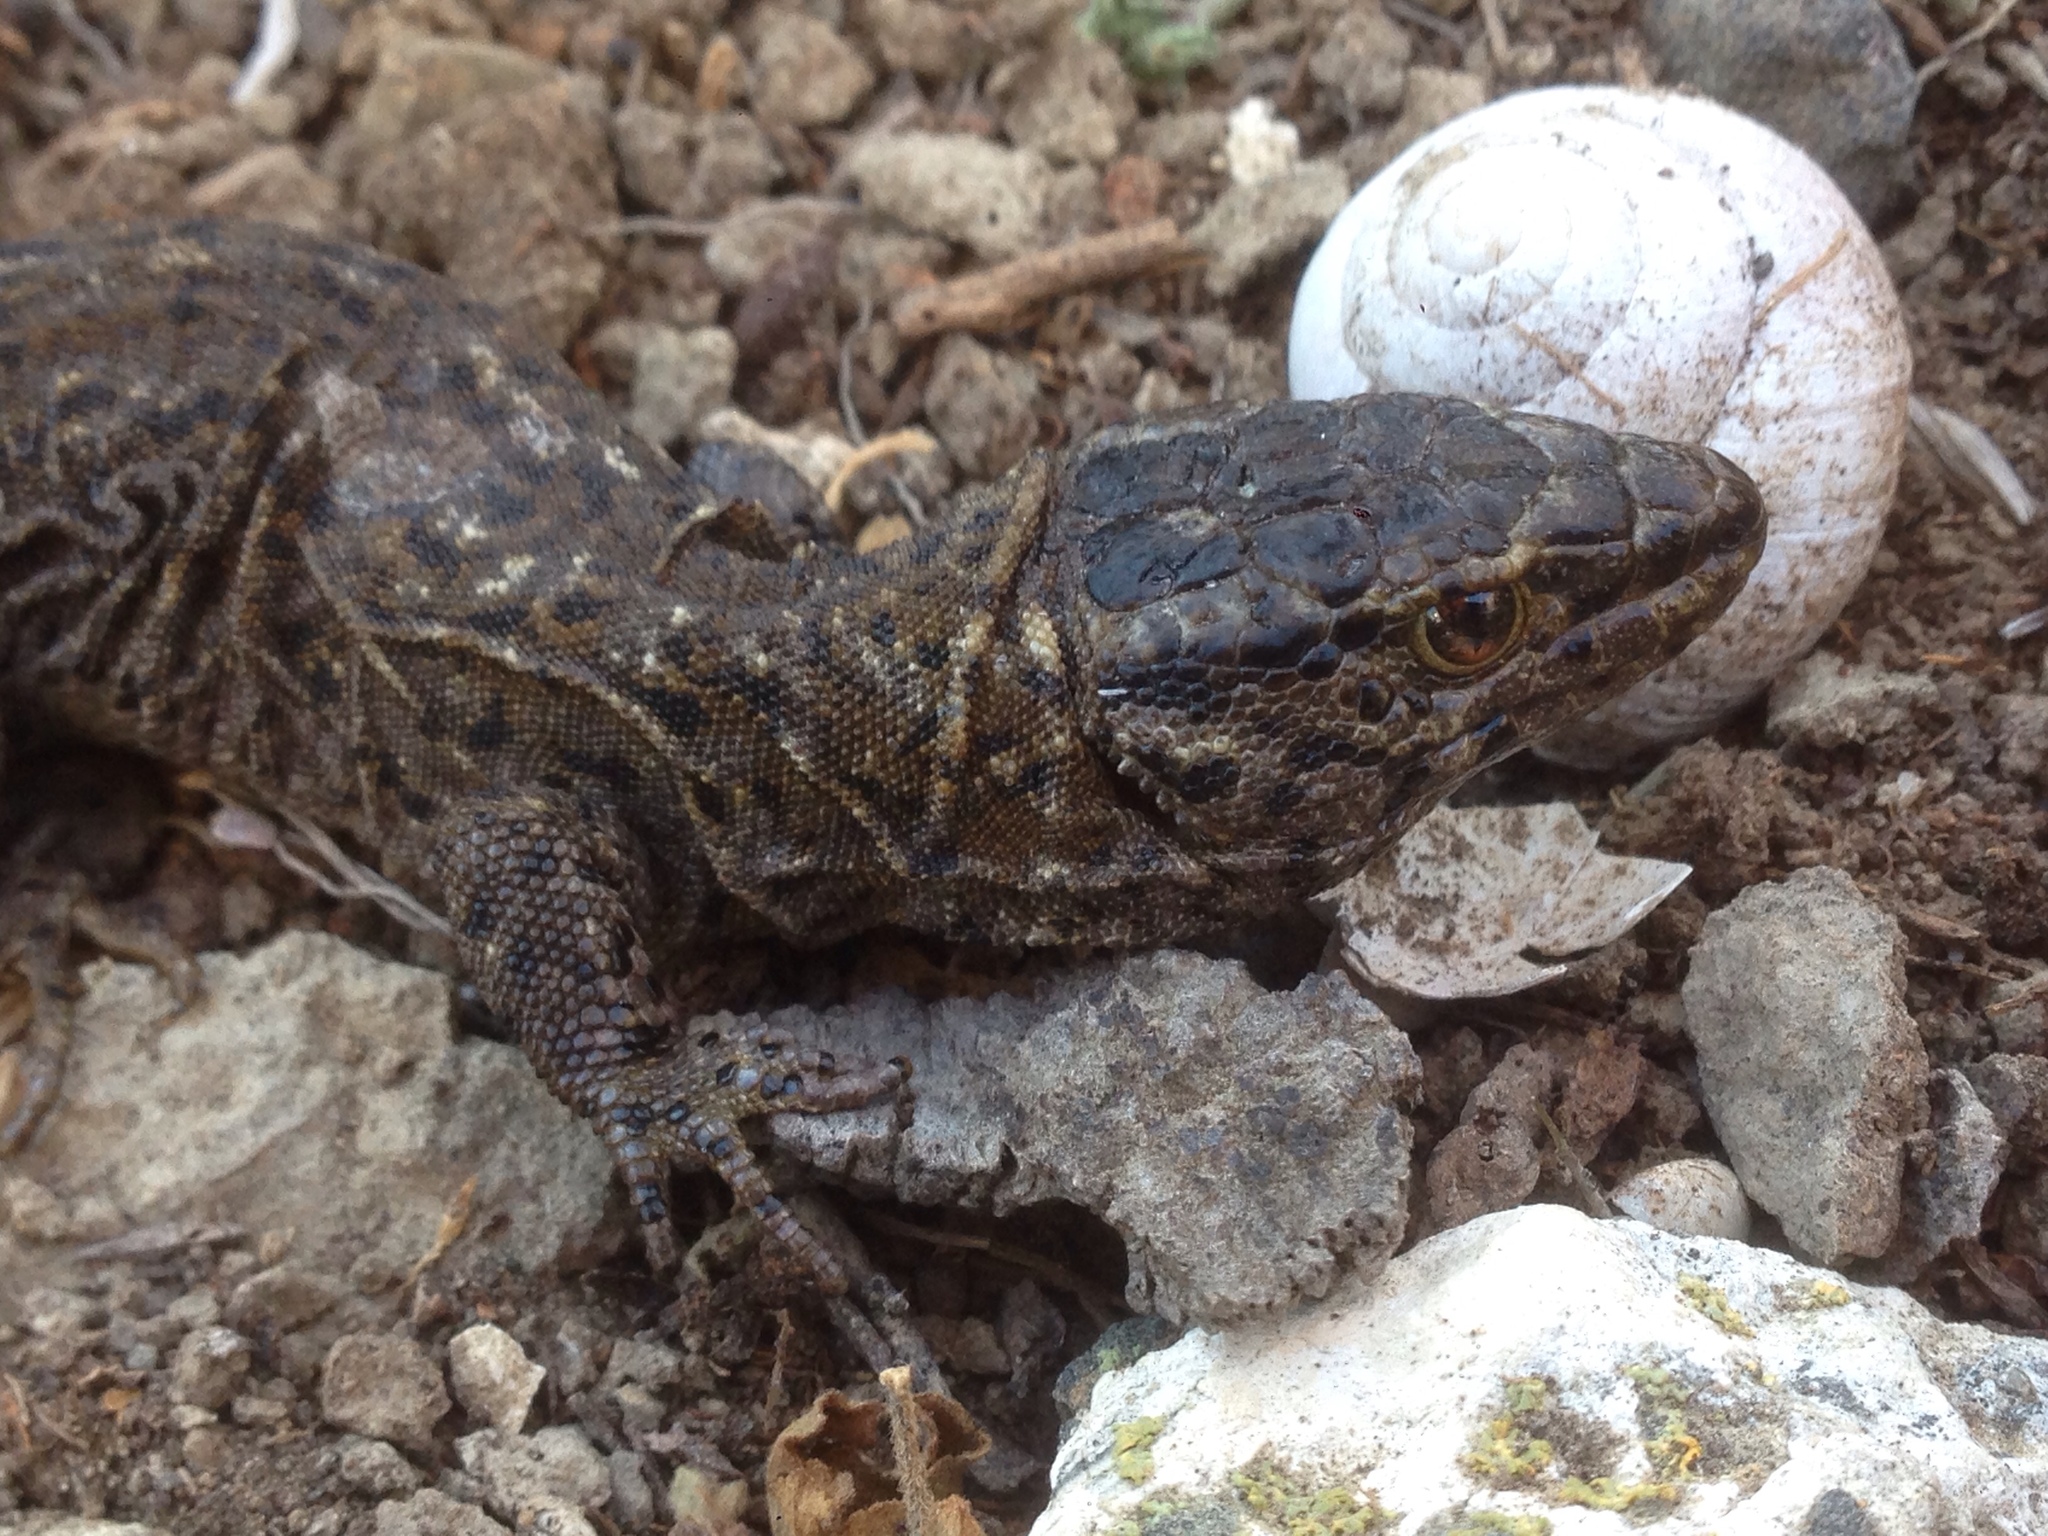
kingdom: Animalia
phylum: Chordata
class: Squamata
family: Xantusiidae
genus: Xantusia
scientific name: Xantusia riversiana
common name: Island night lizard
